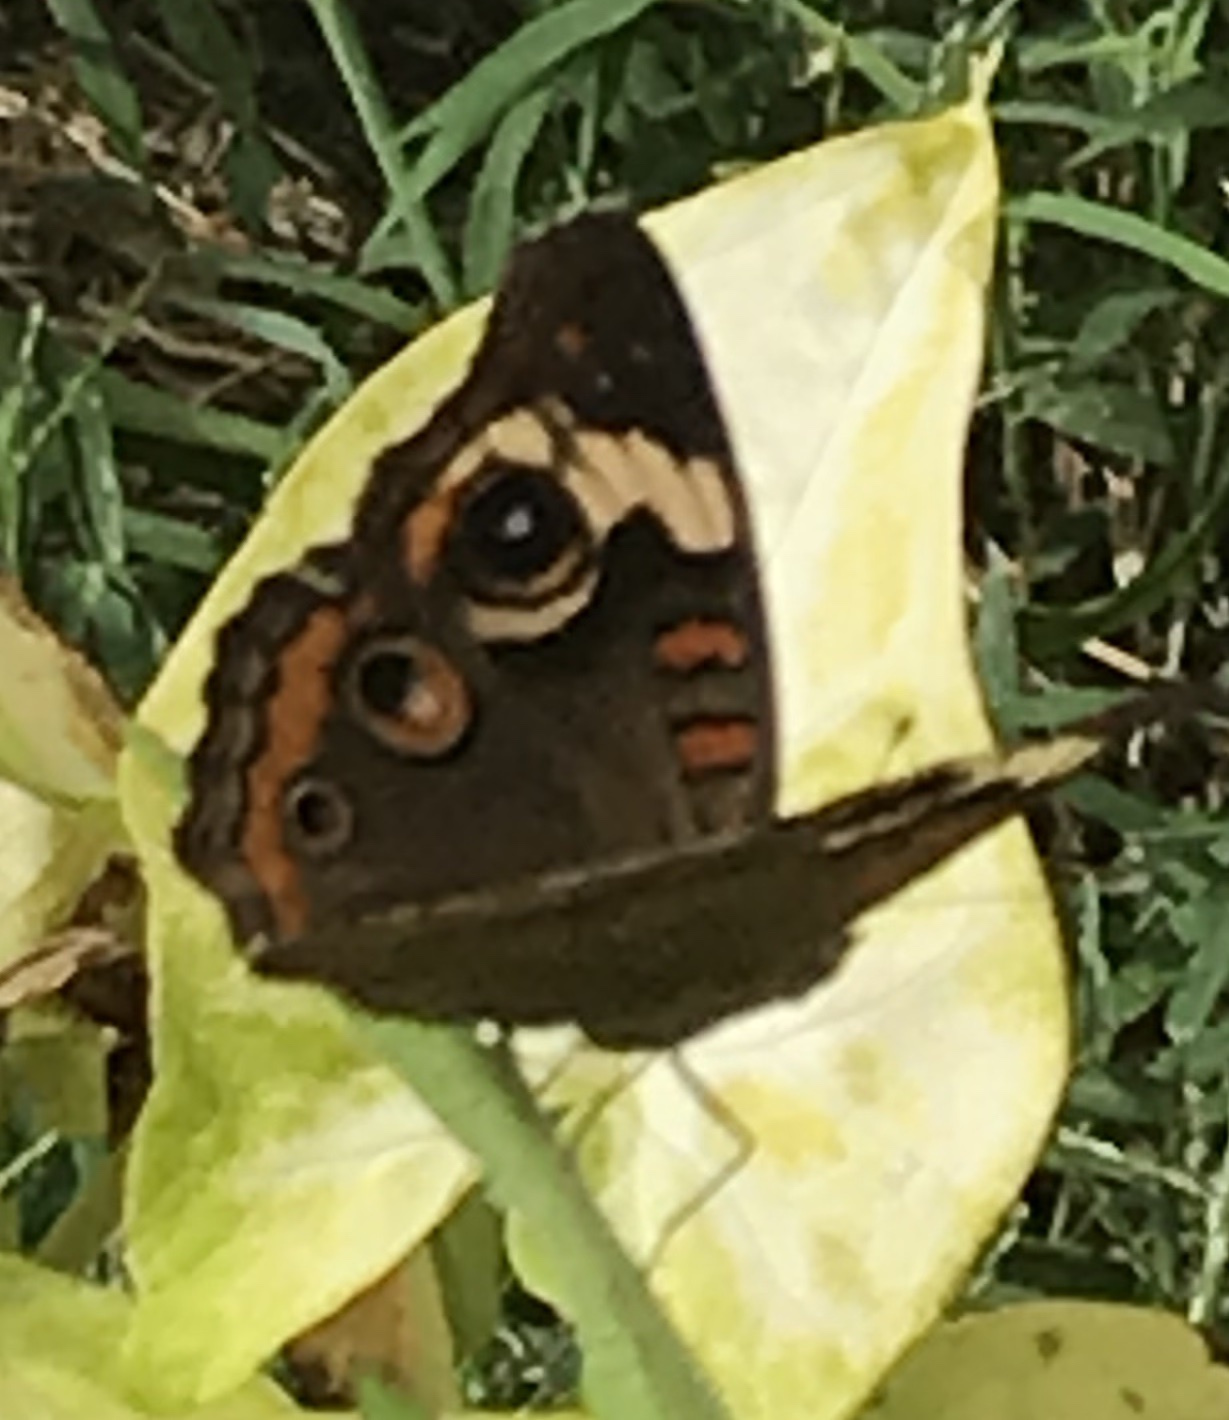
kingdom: Animalia
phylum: Arthropoda
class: Insecta
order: Lepidoptera
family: Nymphalidae
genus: Junonia
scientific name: Junonia coenia
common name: Common buckeye
